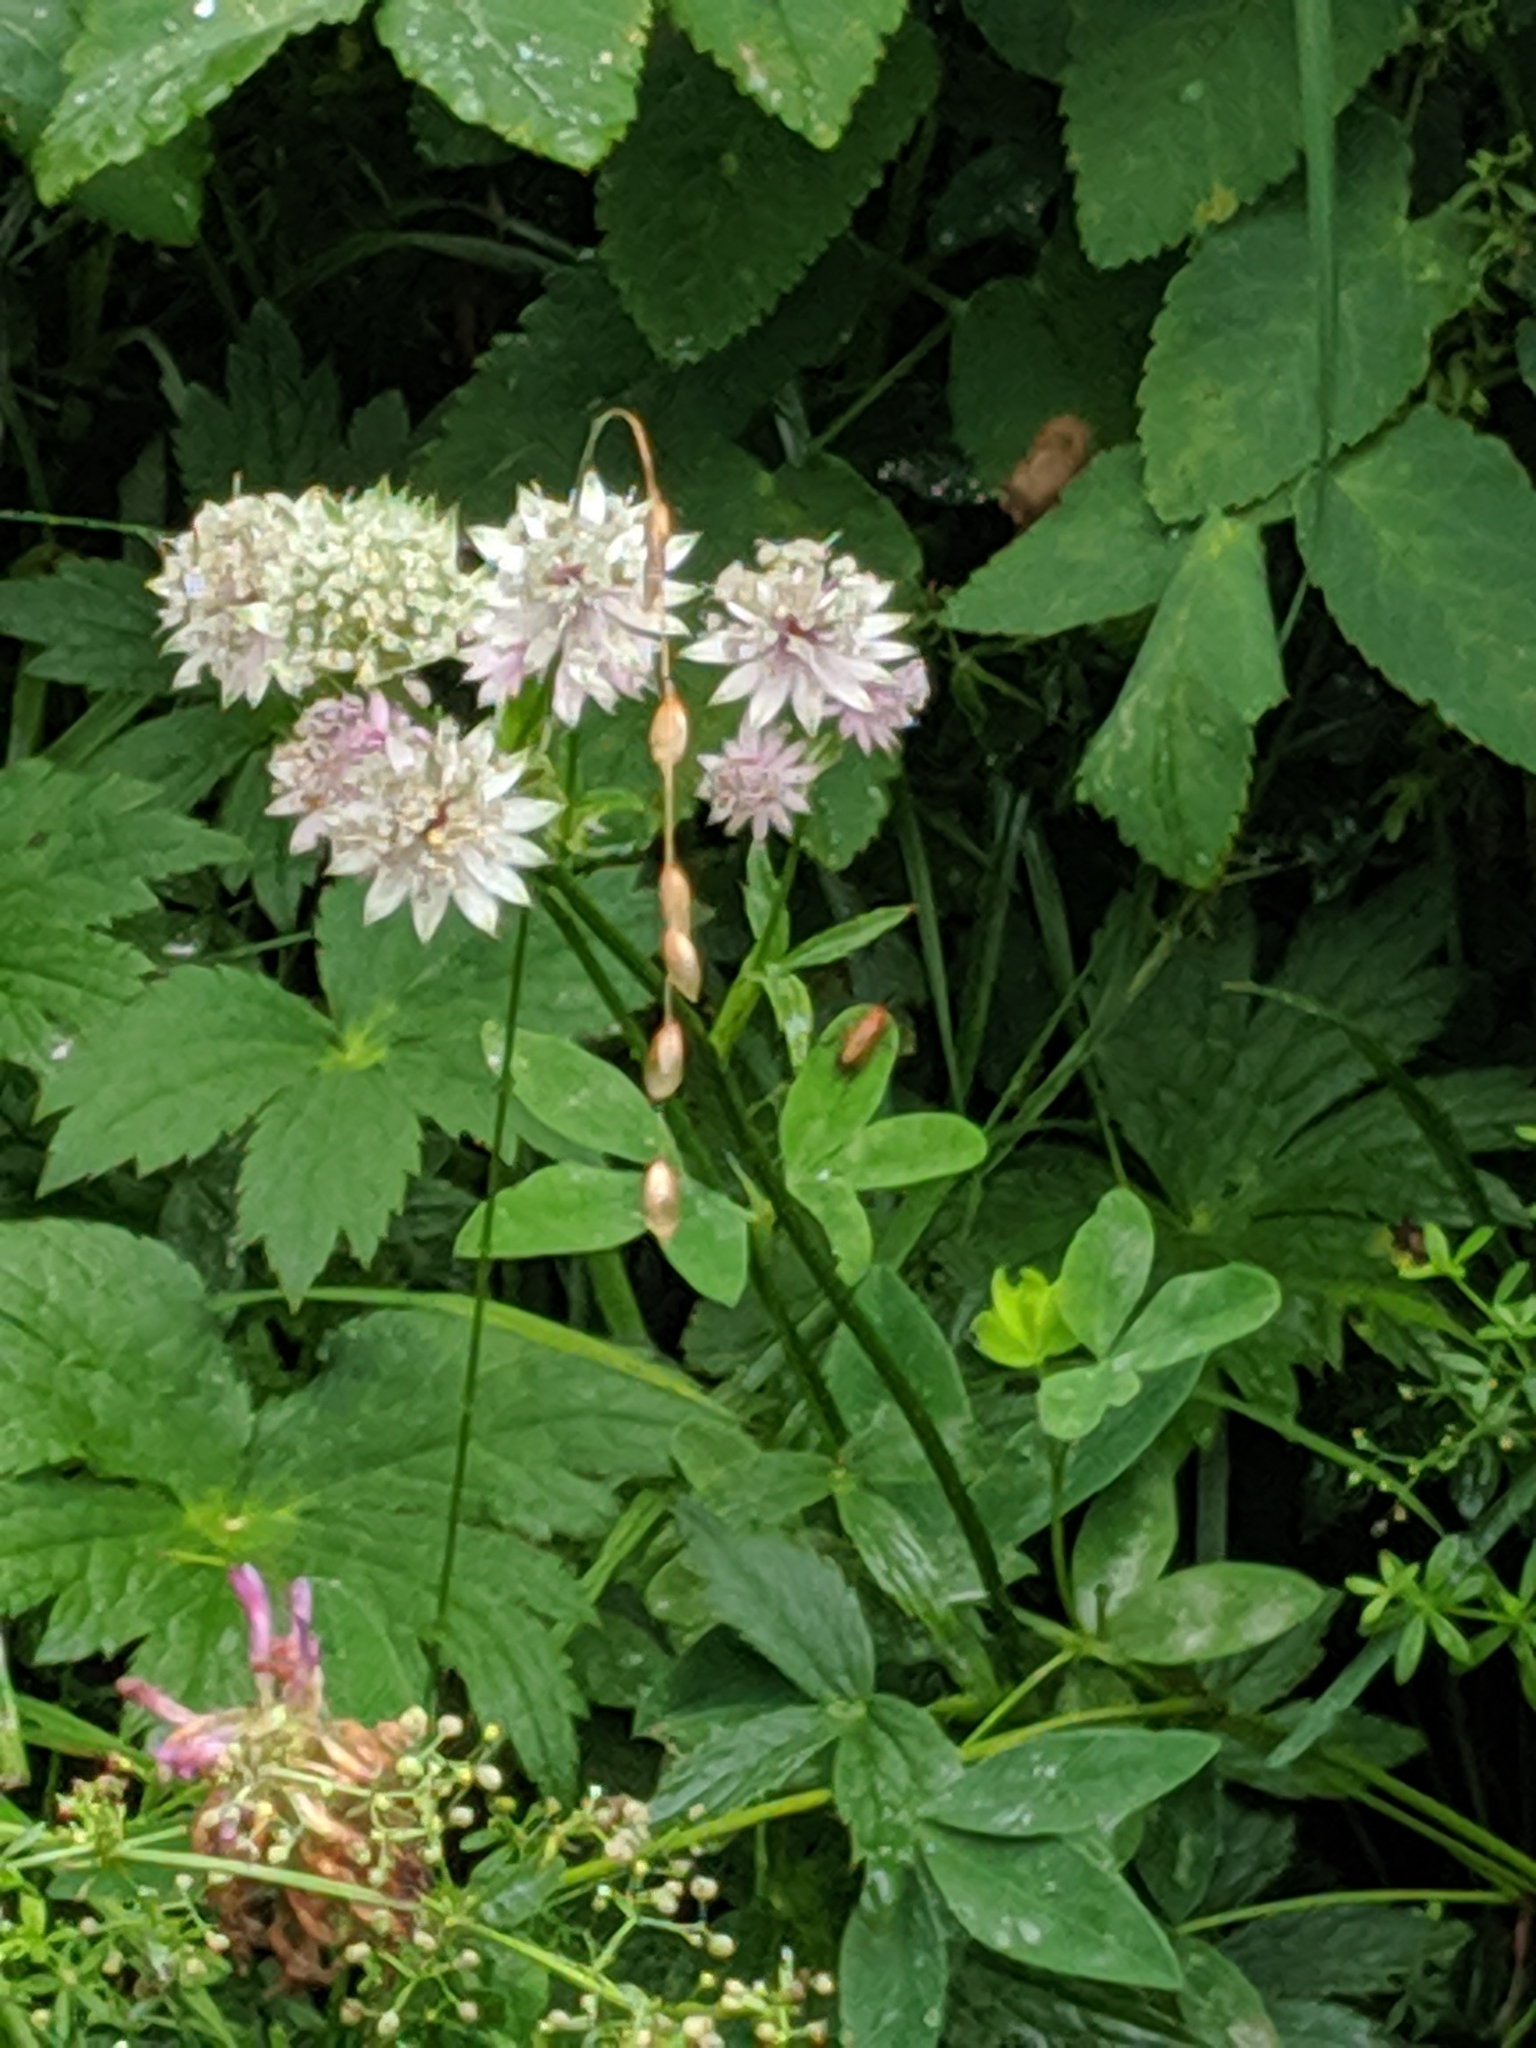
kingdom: Plantae
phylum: Tracheophyta
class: Magnoliopsida
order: Apiales
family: Apiaceae
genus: Astrantia
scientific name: Astrantia major
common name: Greater masterwort
